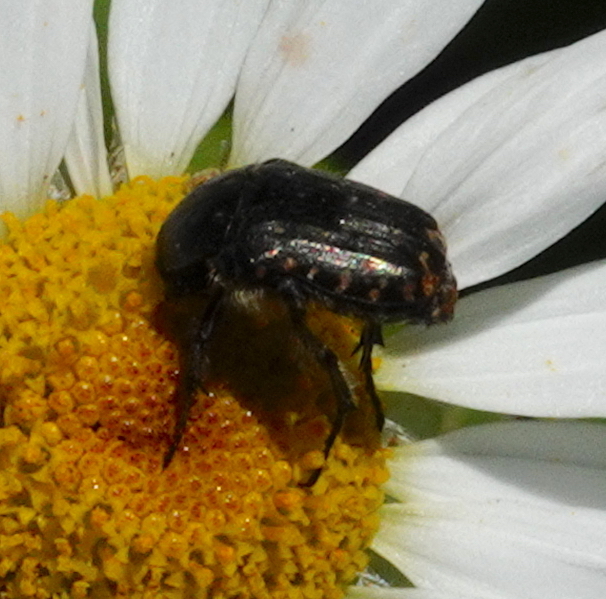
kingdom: Animalia
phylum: Arthropoda
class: Insecta
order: Coleoptera
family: Scarabaeidae
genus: Oxythyrea
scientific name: Oxythyrea funesta
